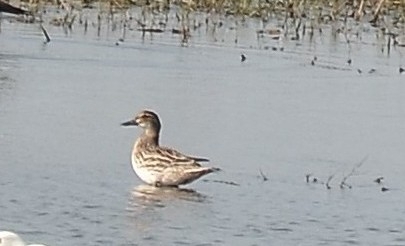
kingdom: Animalia
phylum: Chordata
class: Aves
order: Anseriformes
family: Anatidae
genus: Spatula
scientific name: Spatula querquedula
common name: Garganey
